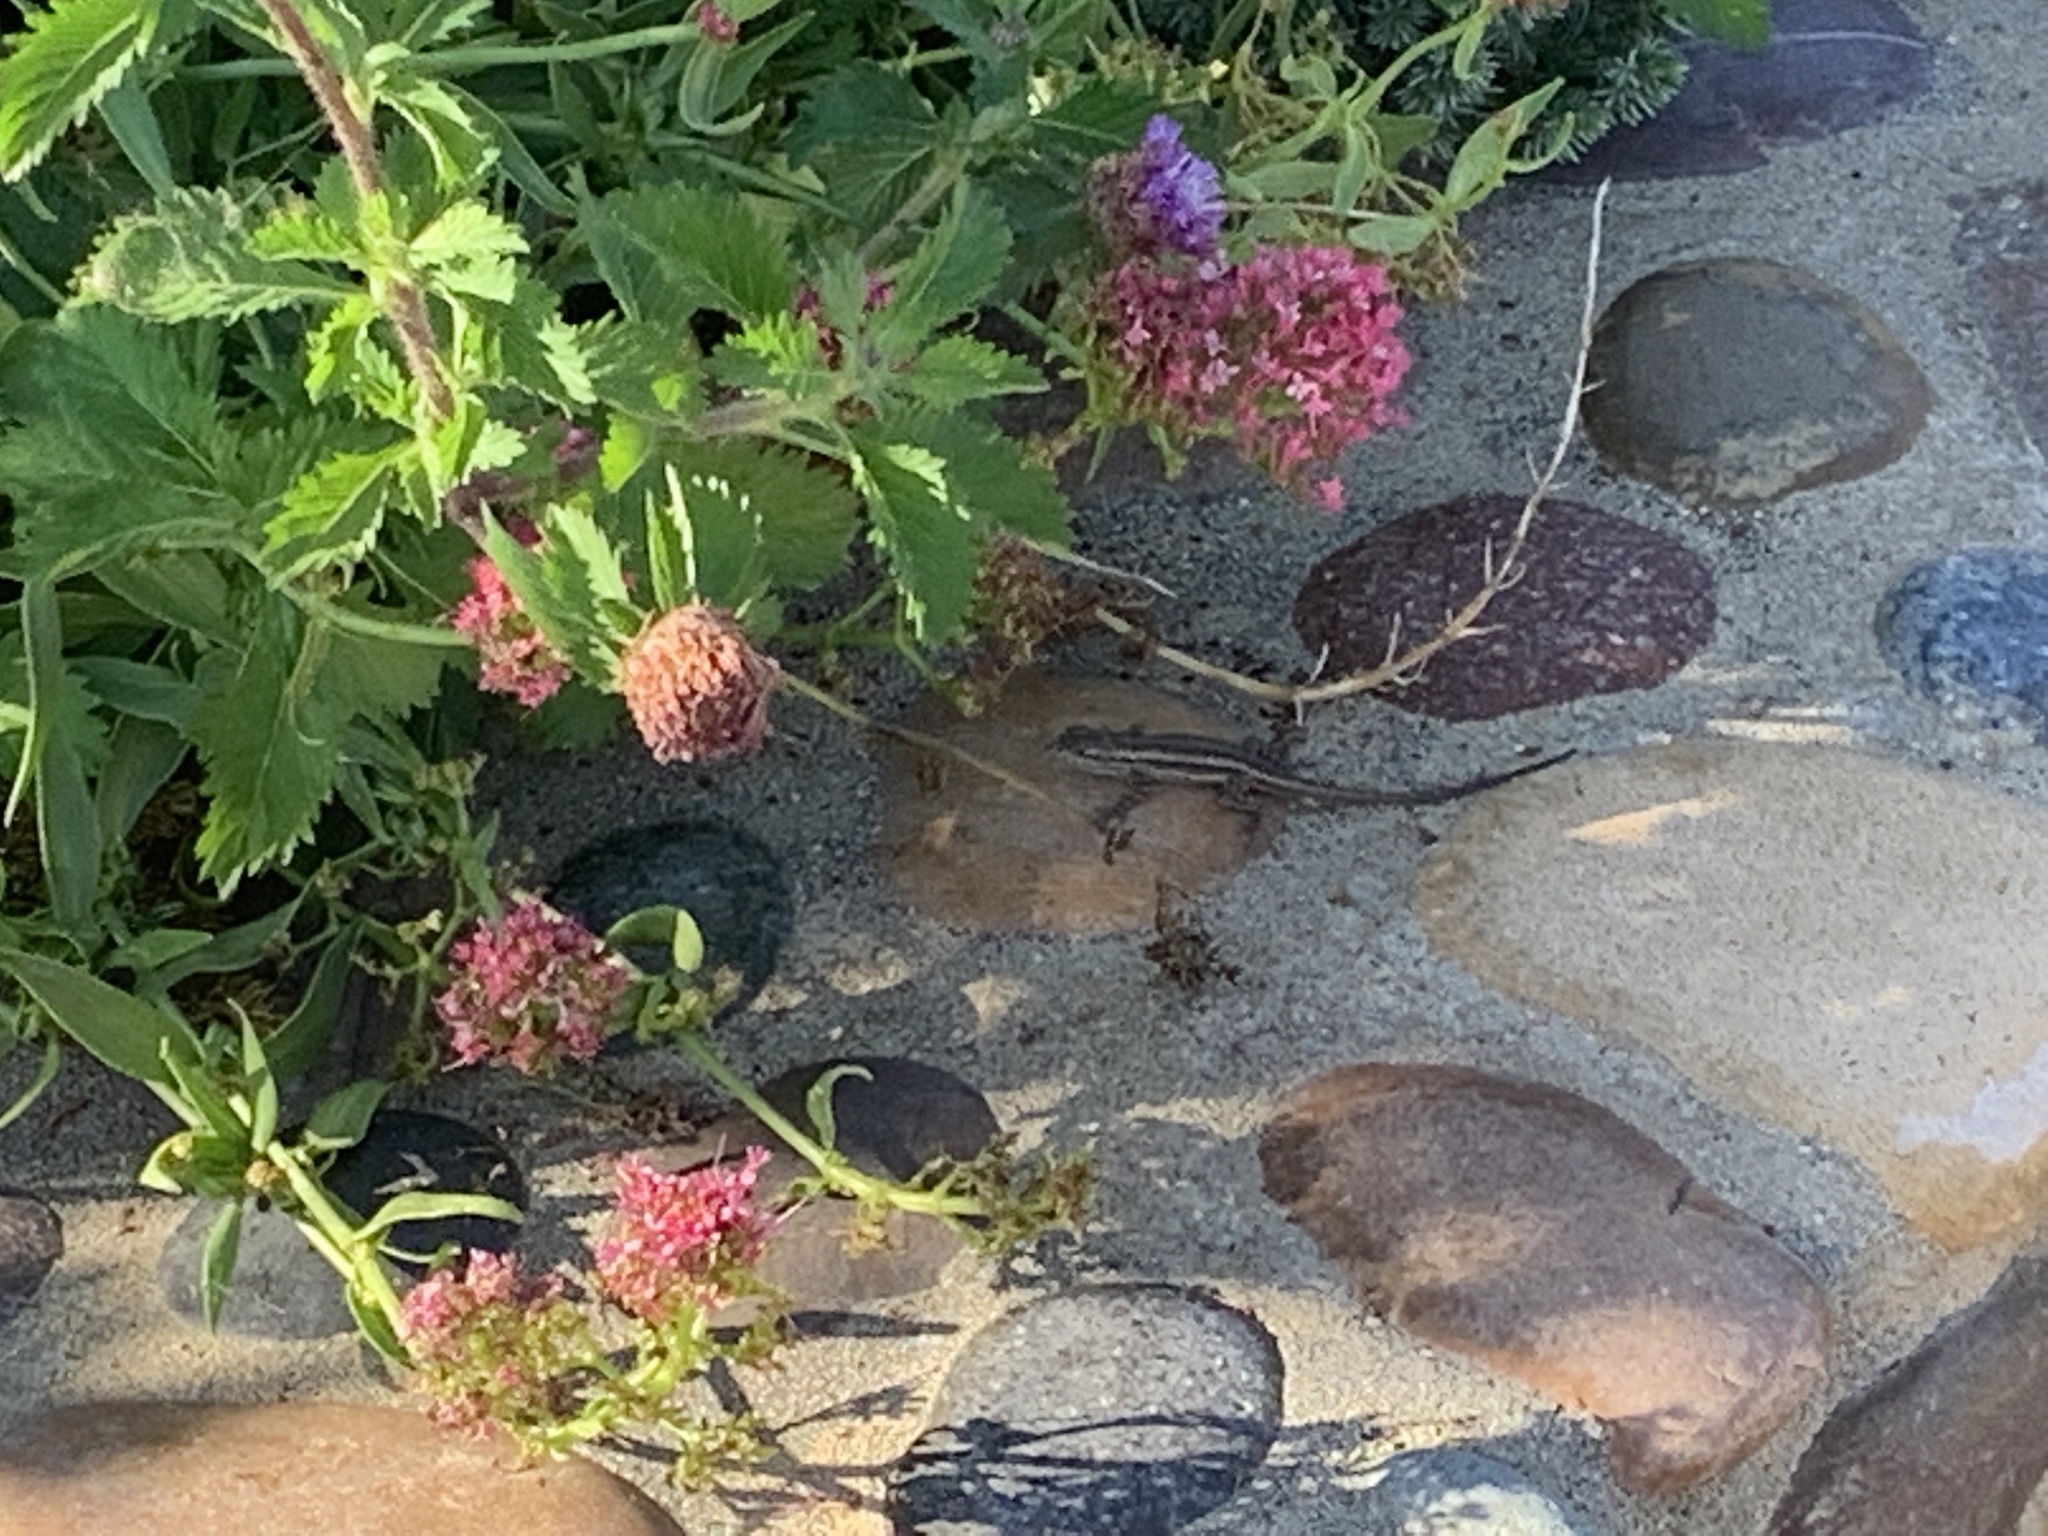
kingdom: Animalia
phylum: Chordata
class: Squamata
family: Phrynosomatidae
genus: Sceloporus
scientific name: Sceloporus occidentalis
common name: Western fence lizard
